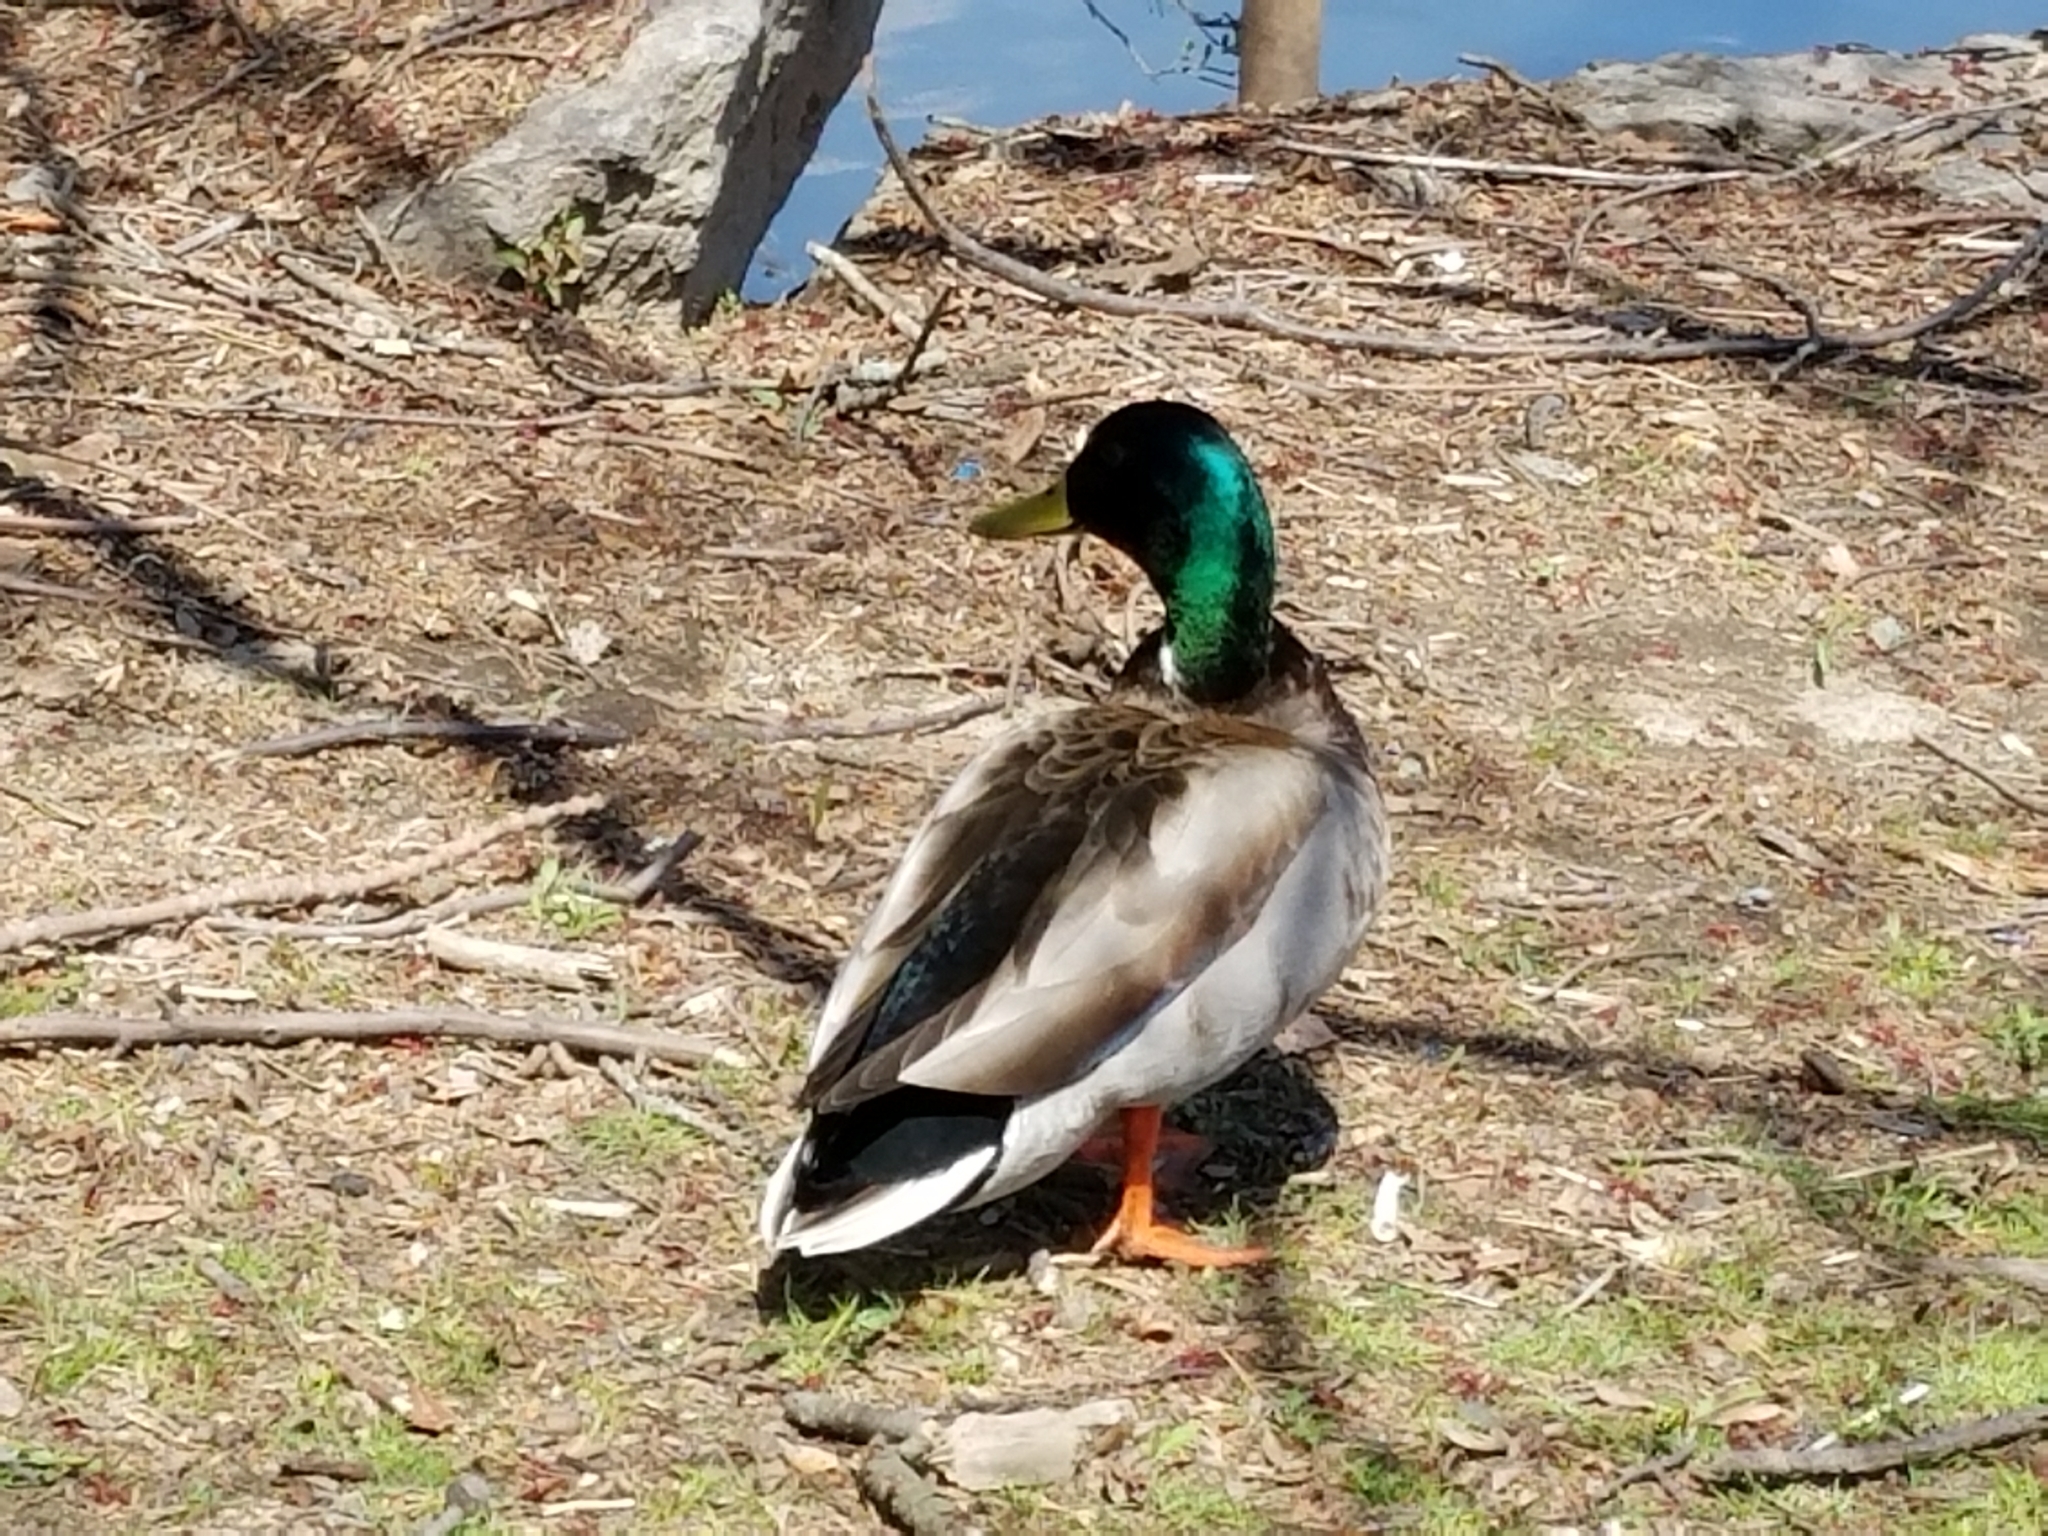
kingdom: Animalia
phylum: Chordata
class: Aves
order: Anseriformes
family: Anatidae
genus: Anas
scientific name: Anas platyrhynchos
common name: Mallard
